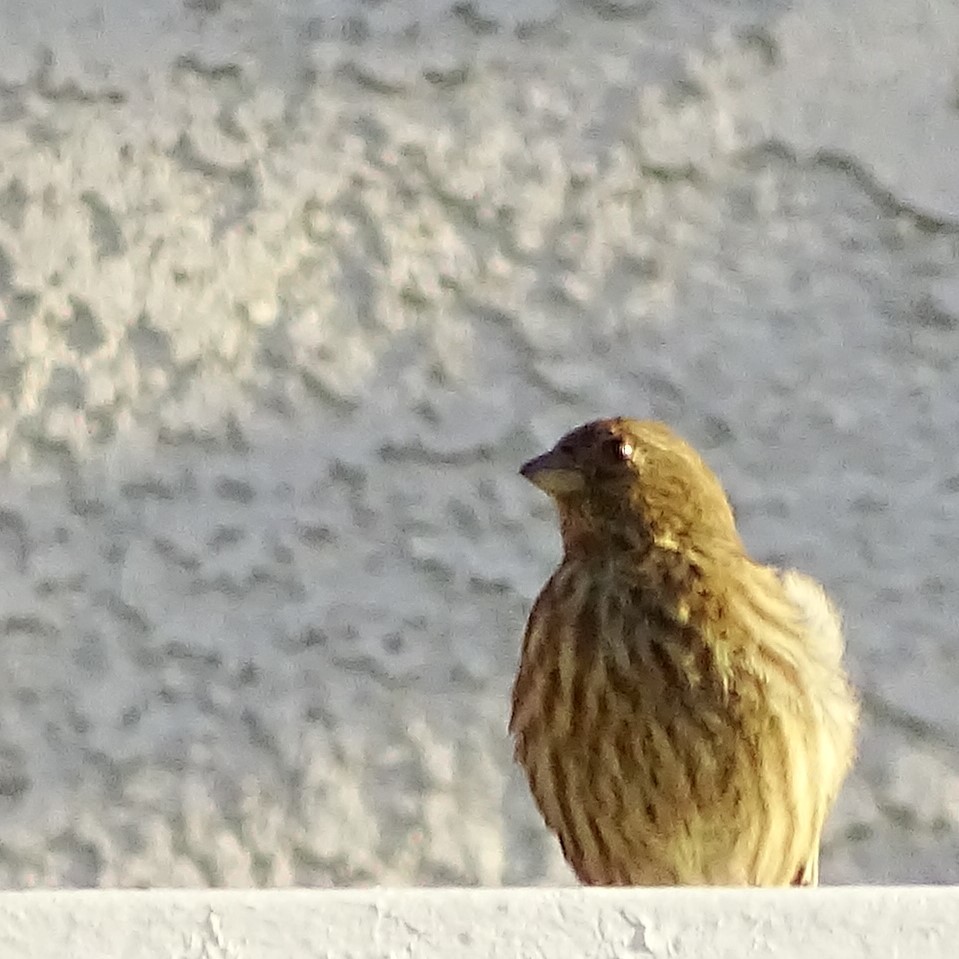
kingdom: Animalia
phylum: Chordata
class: Aves
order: Passeriformes
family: Fringillidae
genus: Haemorhous
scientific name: Haemorhous mexicanus
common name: House finch
